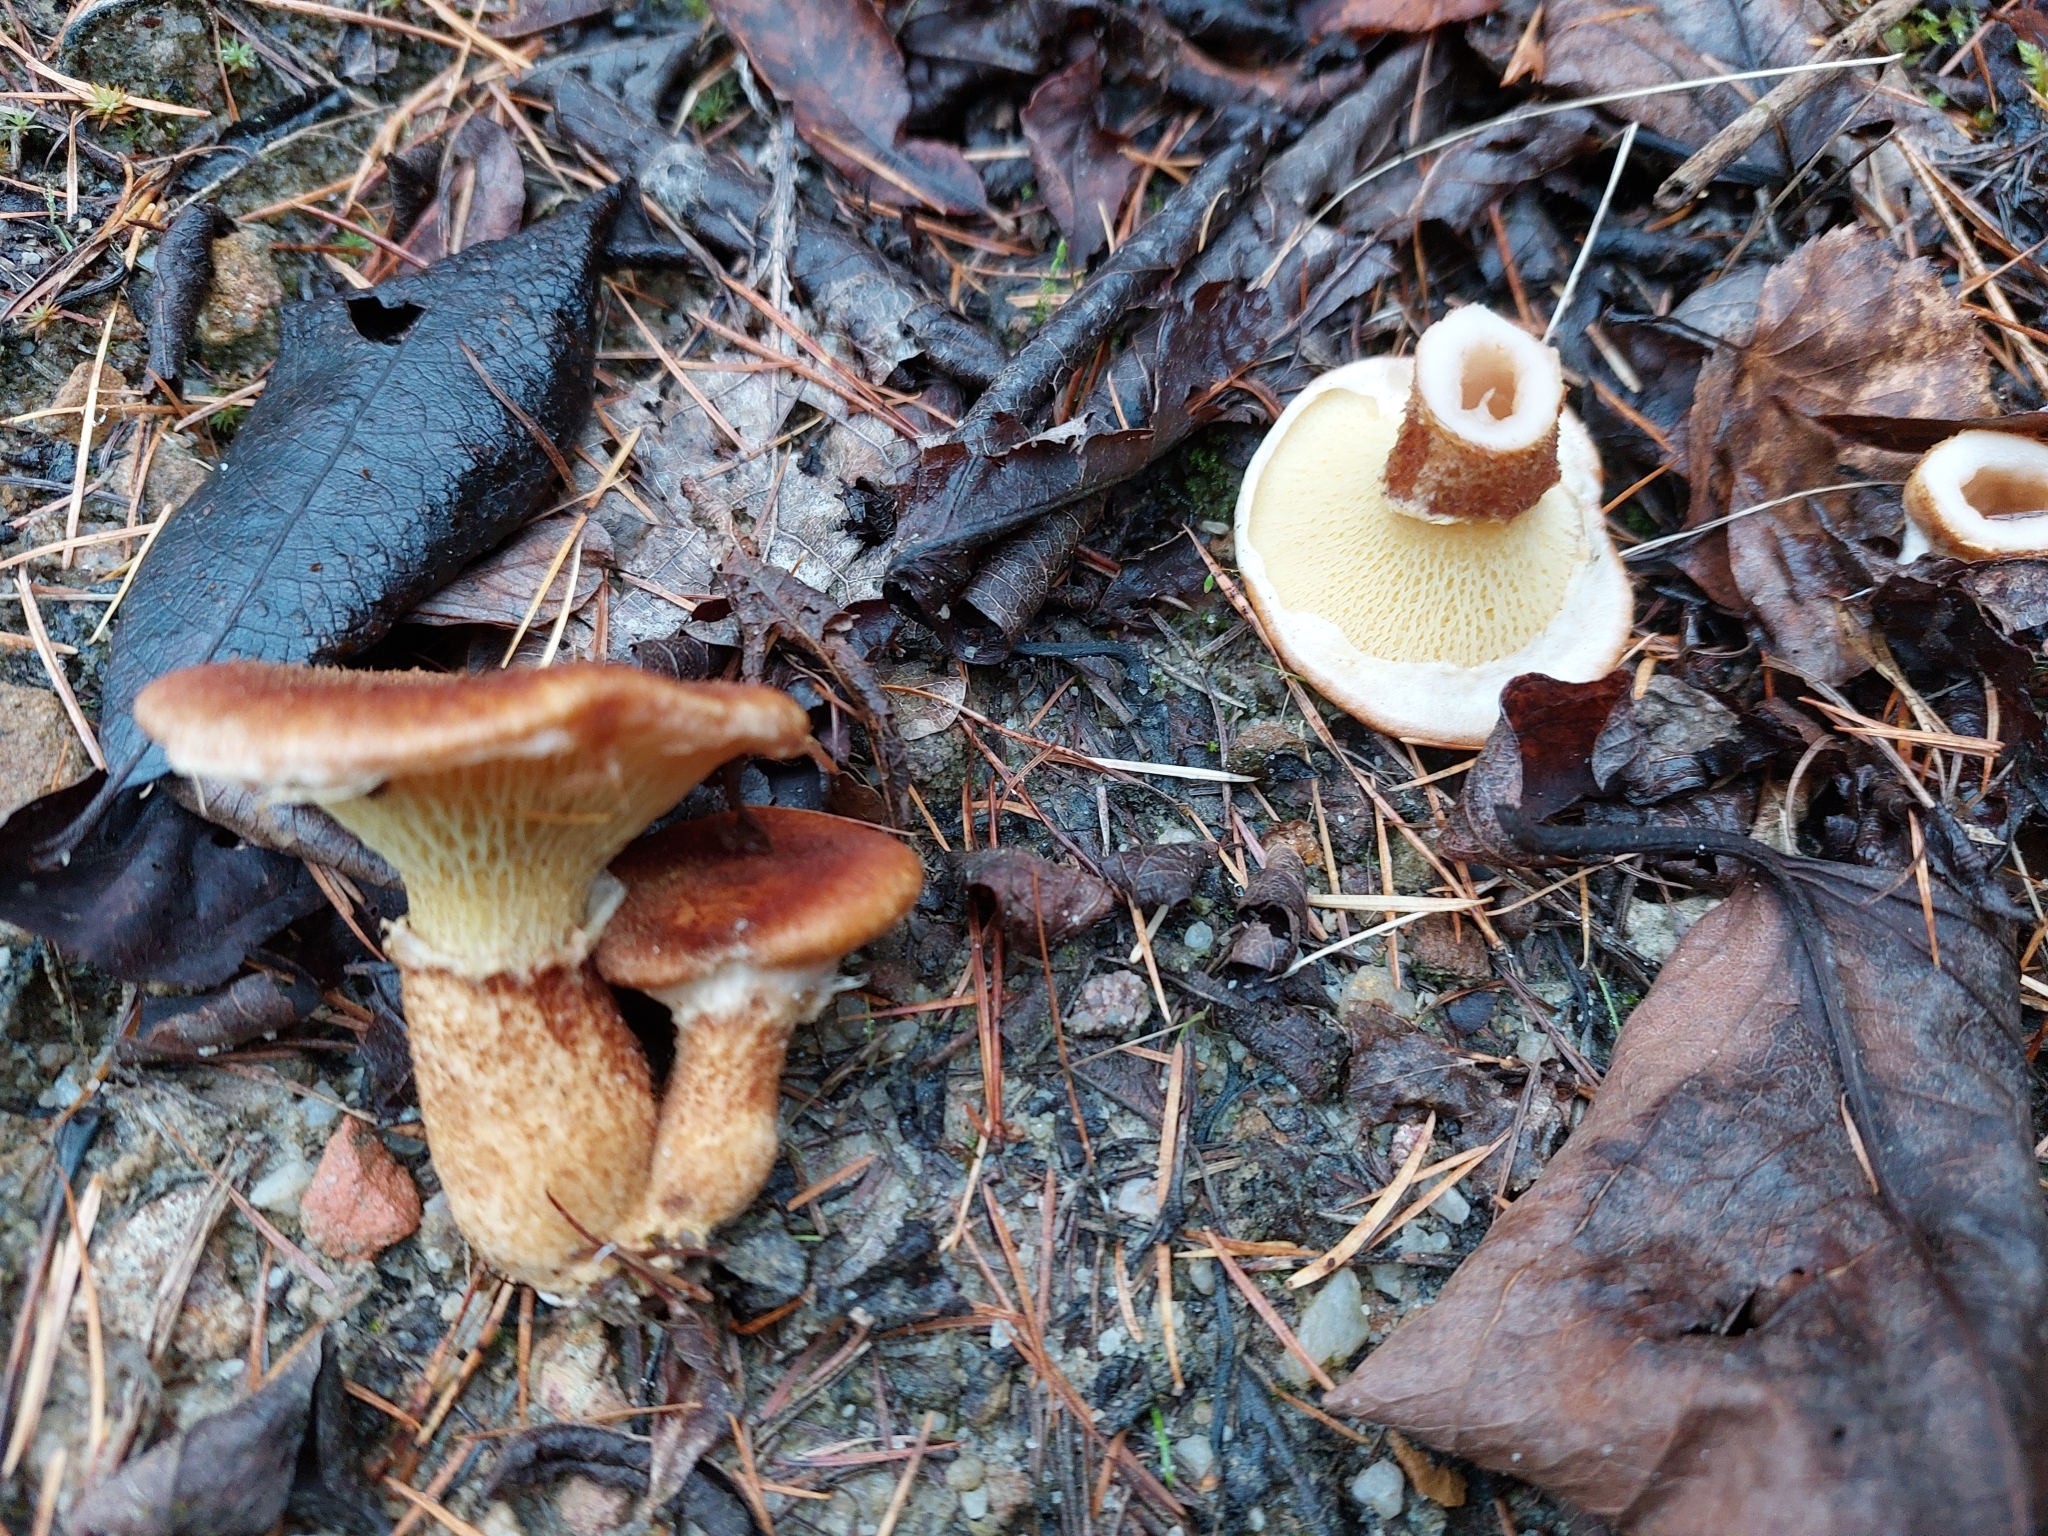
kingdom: Fungi
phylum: Basidiomycota
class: Agaricomycetes
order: Boletales
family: Suillaceae
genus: Suillus
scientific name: Suillus cavipes
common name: Hollow bolete
